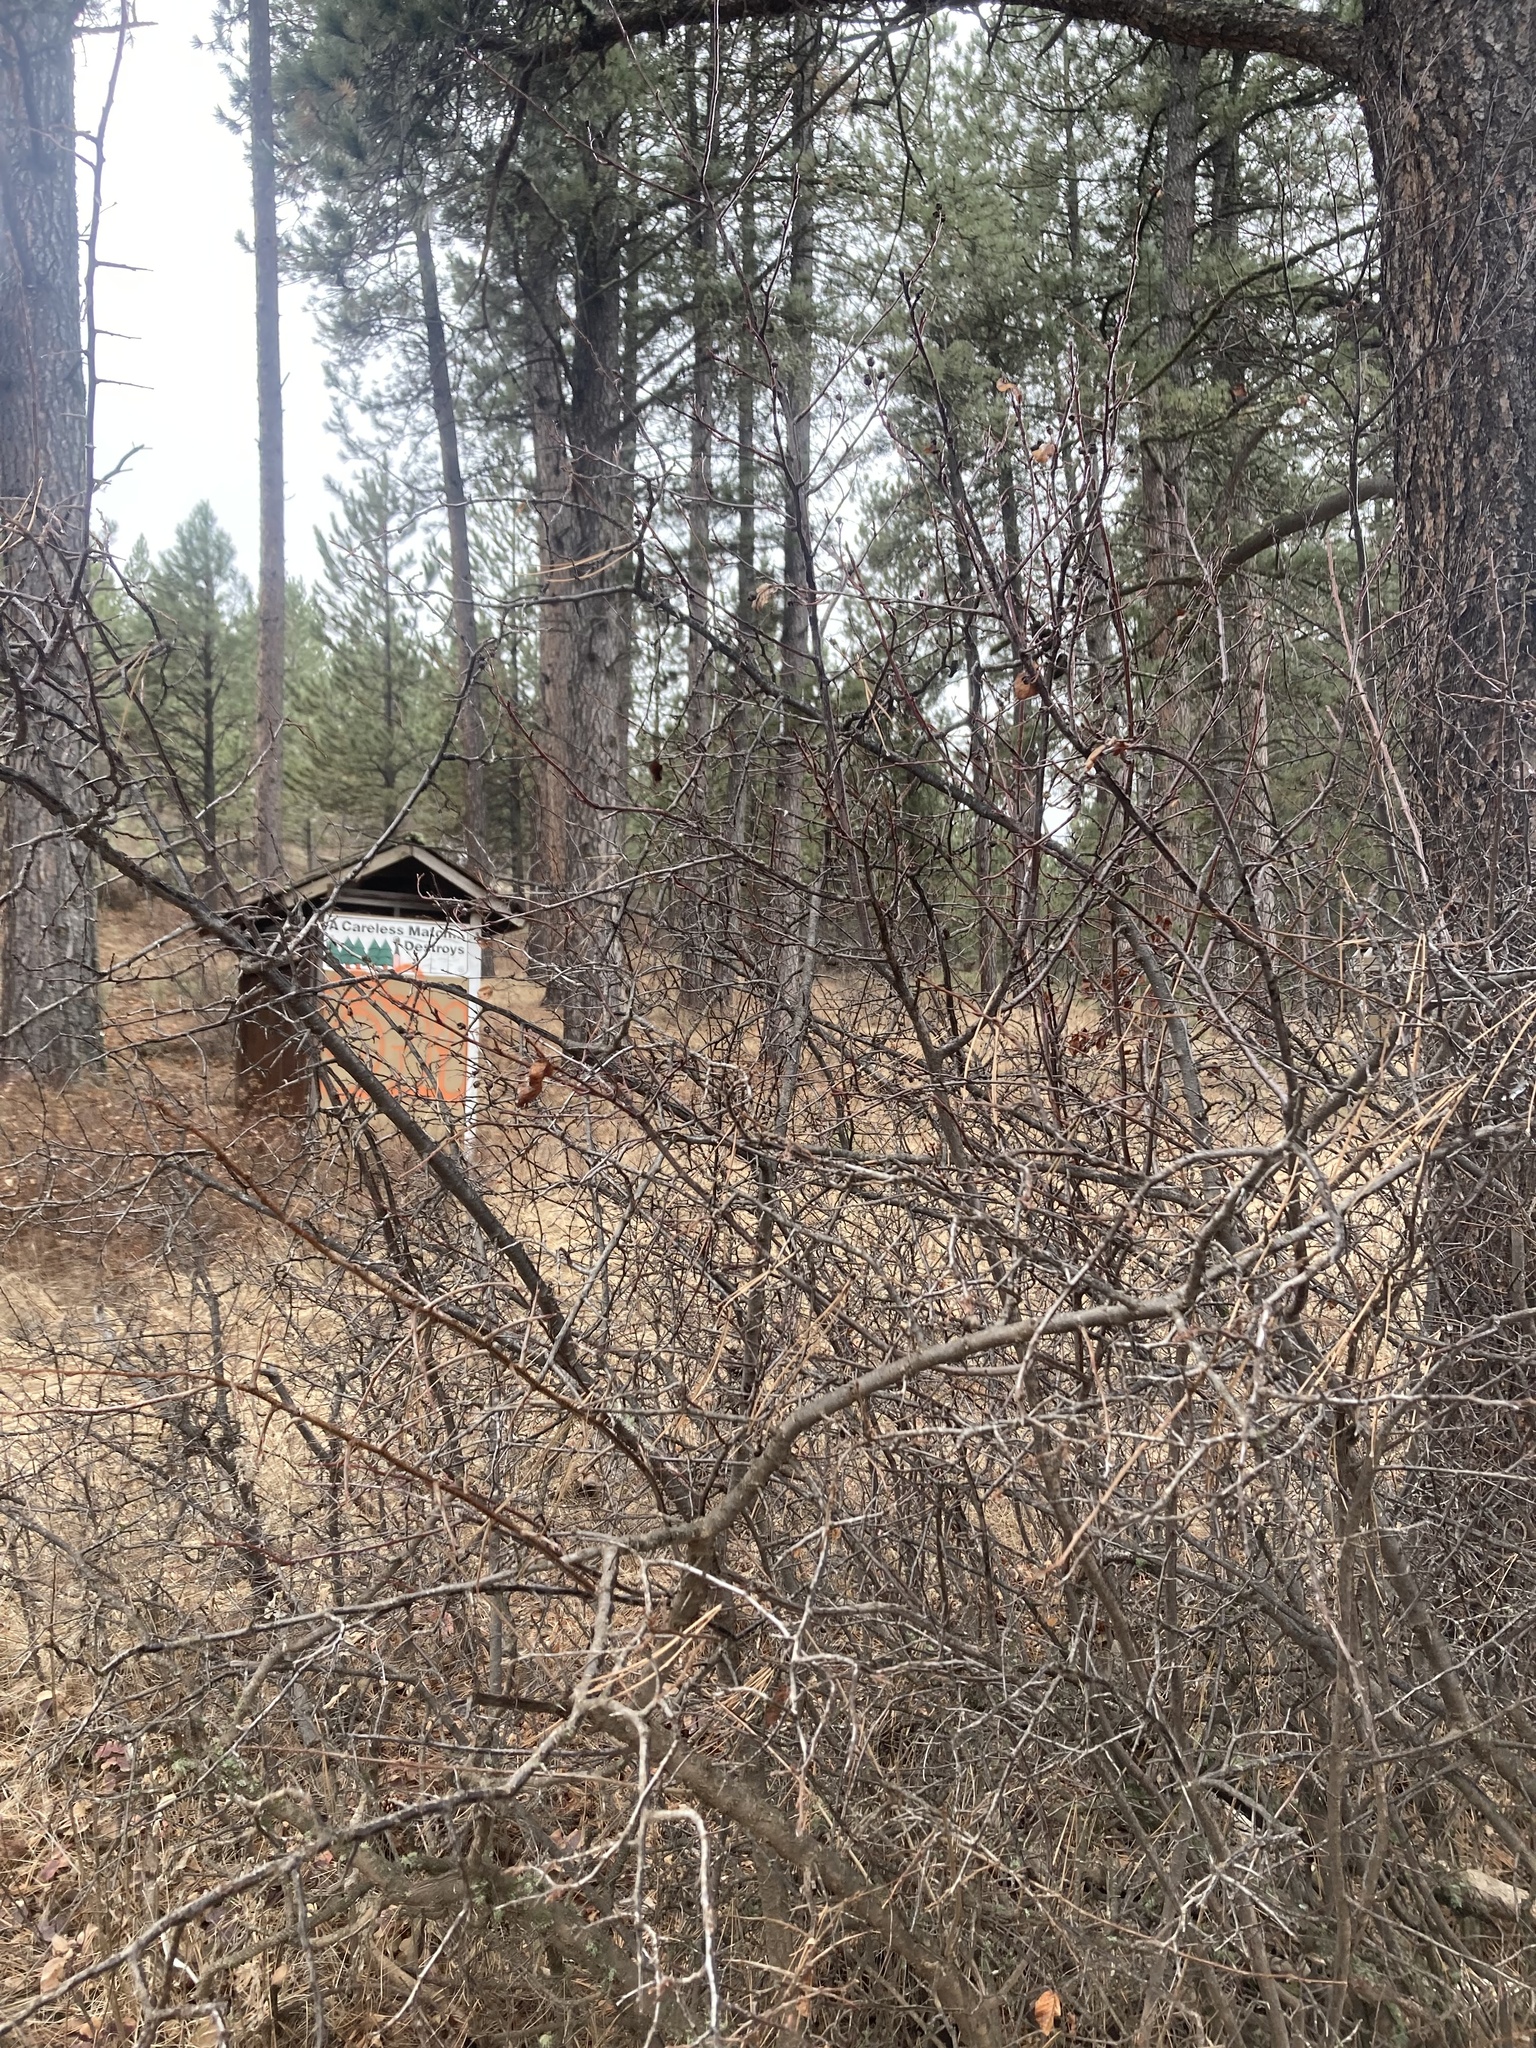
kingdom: Plantae
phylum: Tracheophyta
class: Magnoliopsida
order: Rosales
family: Rosaceae
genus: Amelanchier
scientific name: Amelanchier alnifolia
